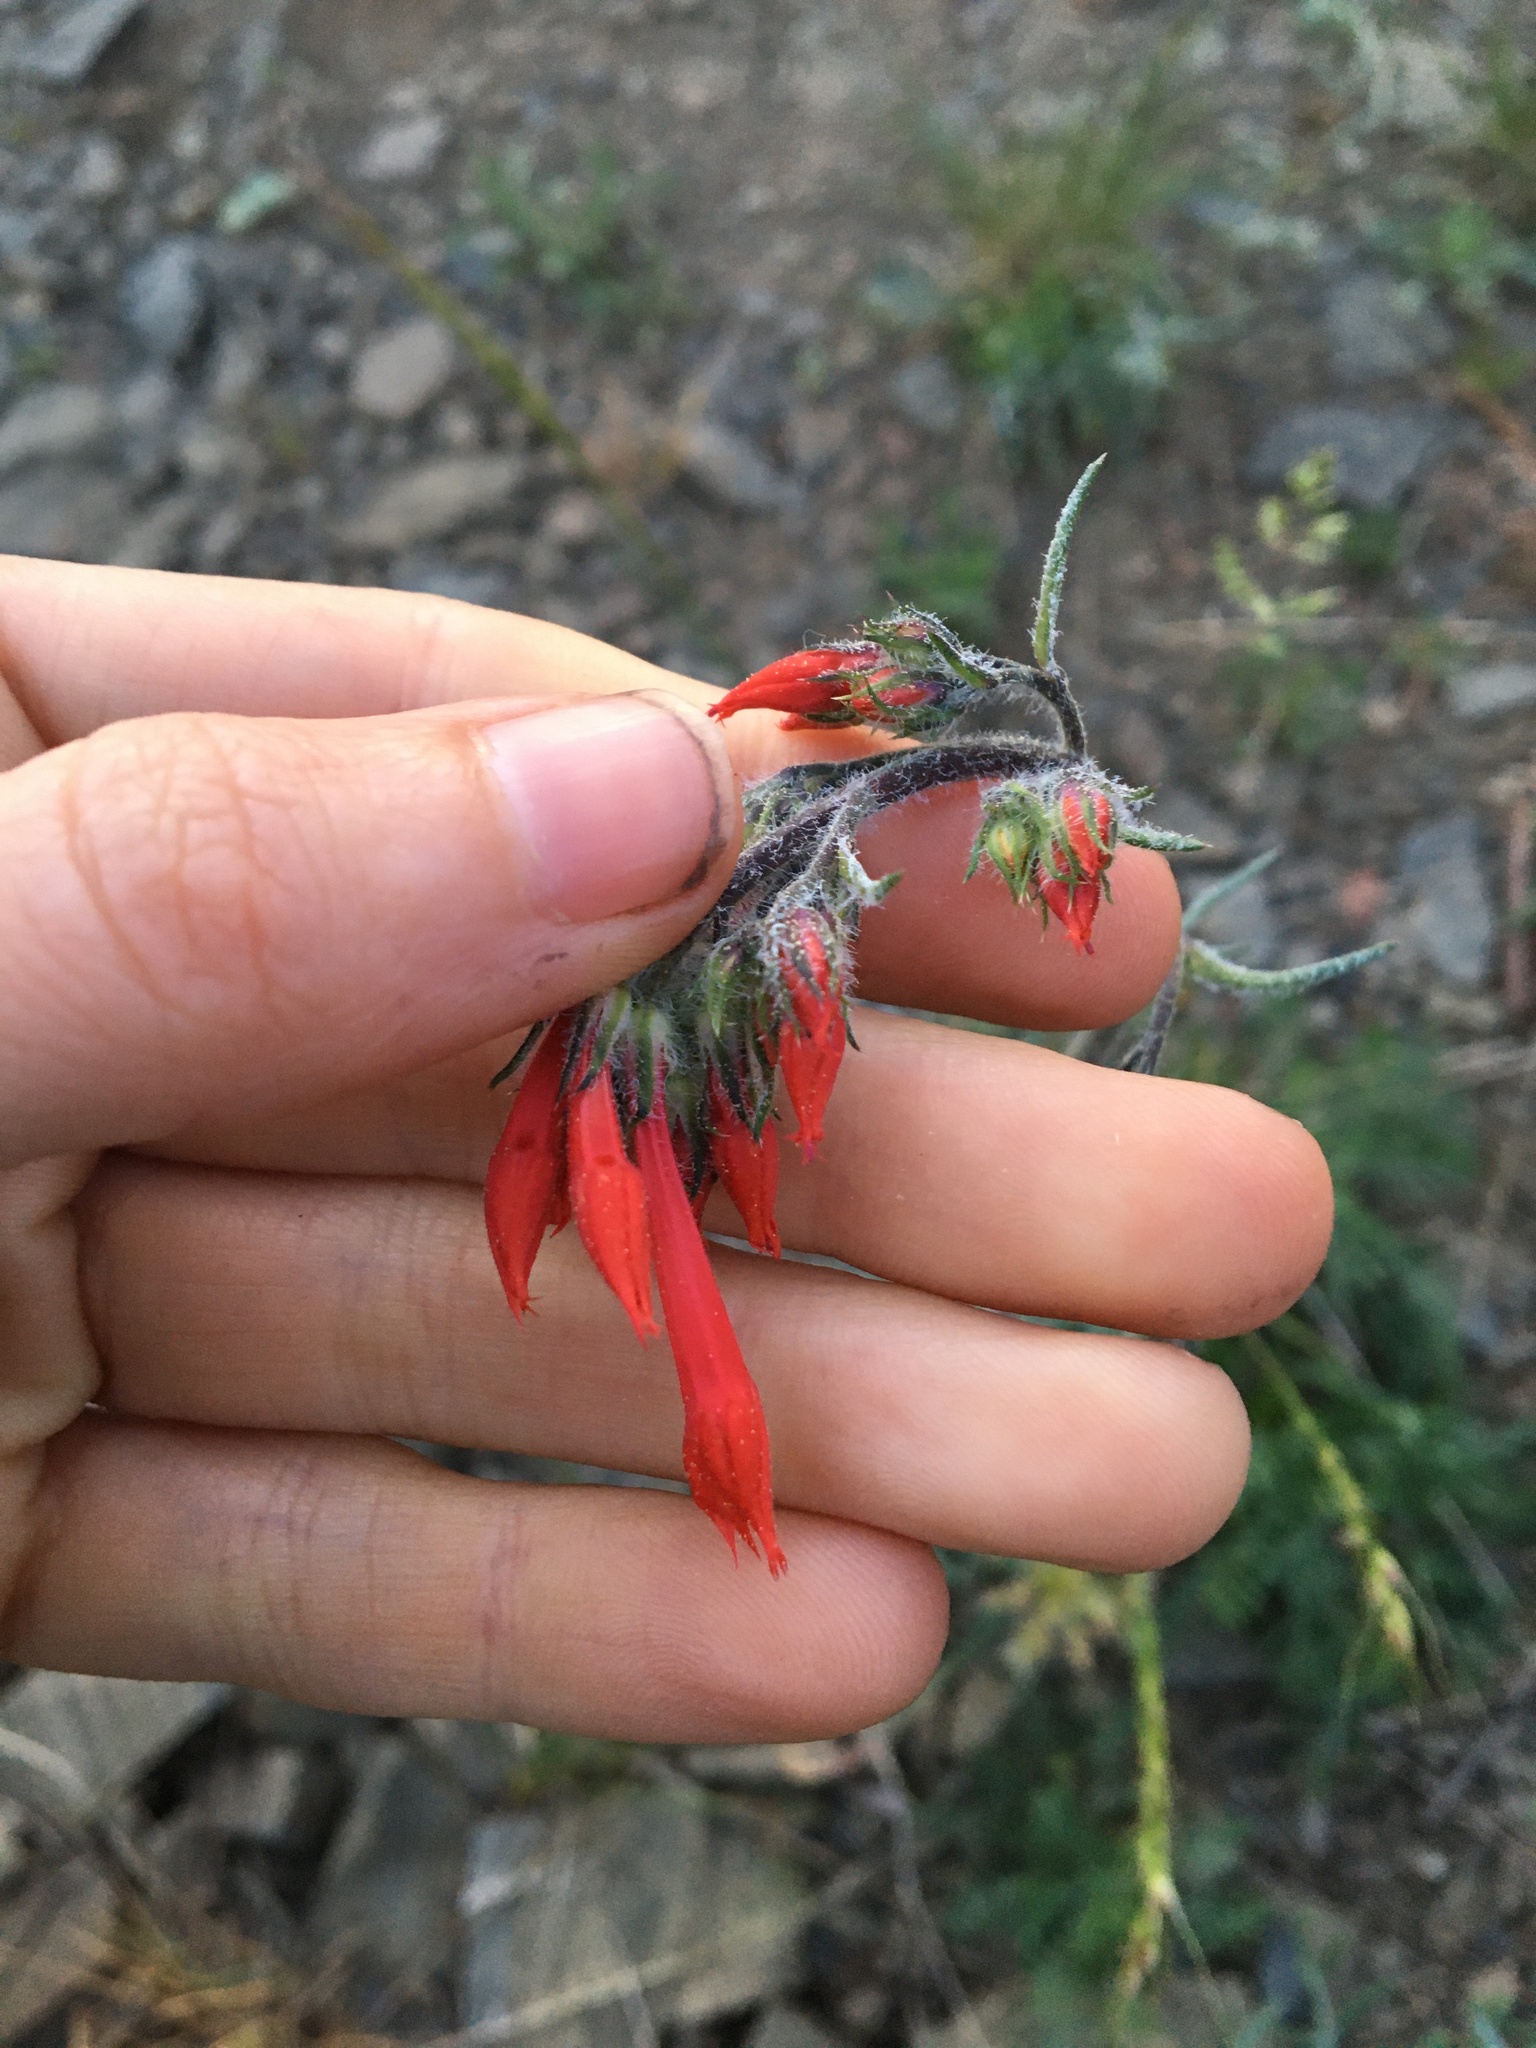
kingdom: Plantae
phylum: Tracheophyta
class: Magnoliopsida
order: Ericales
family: Polemoniaceae
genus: Ipomopsis
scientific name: Ipomopsis aggregata
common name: Scarlet gilia
